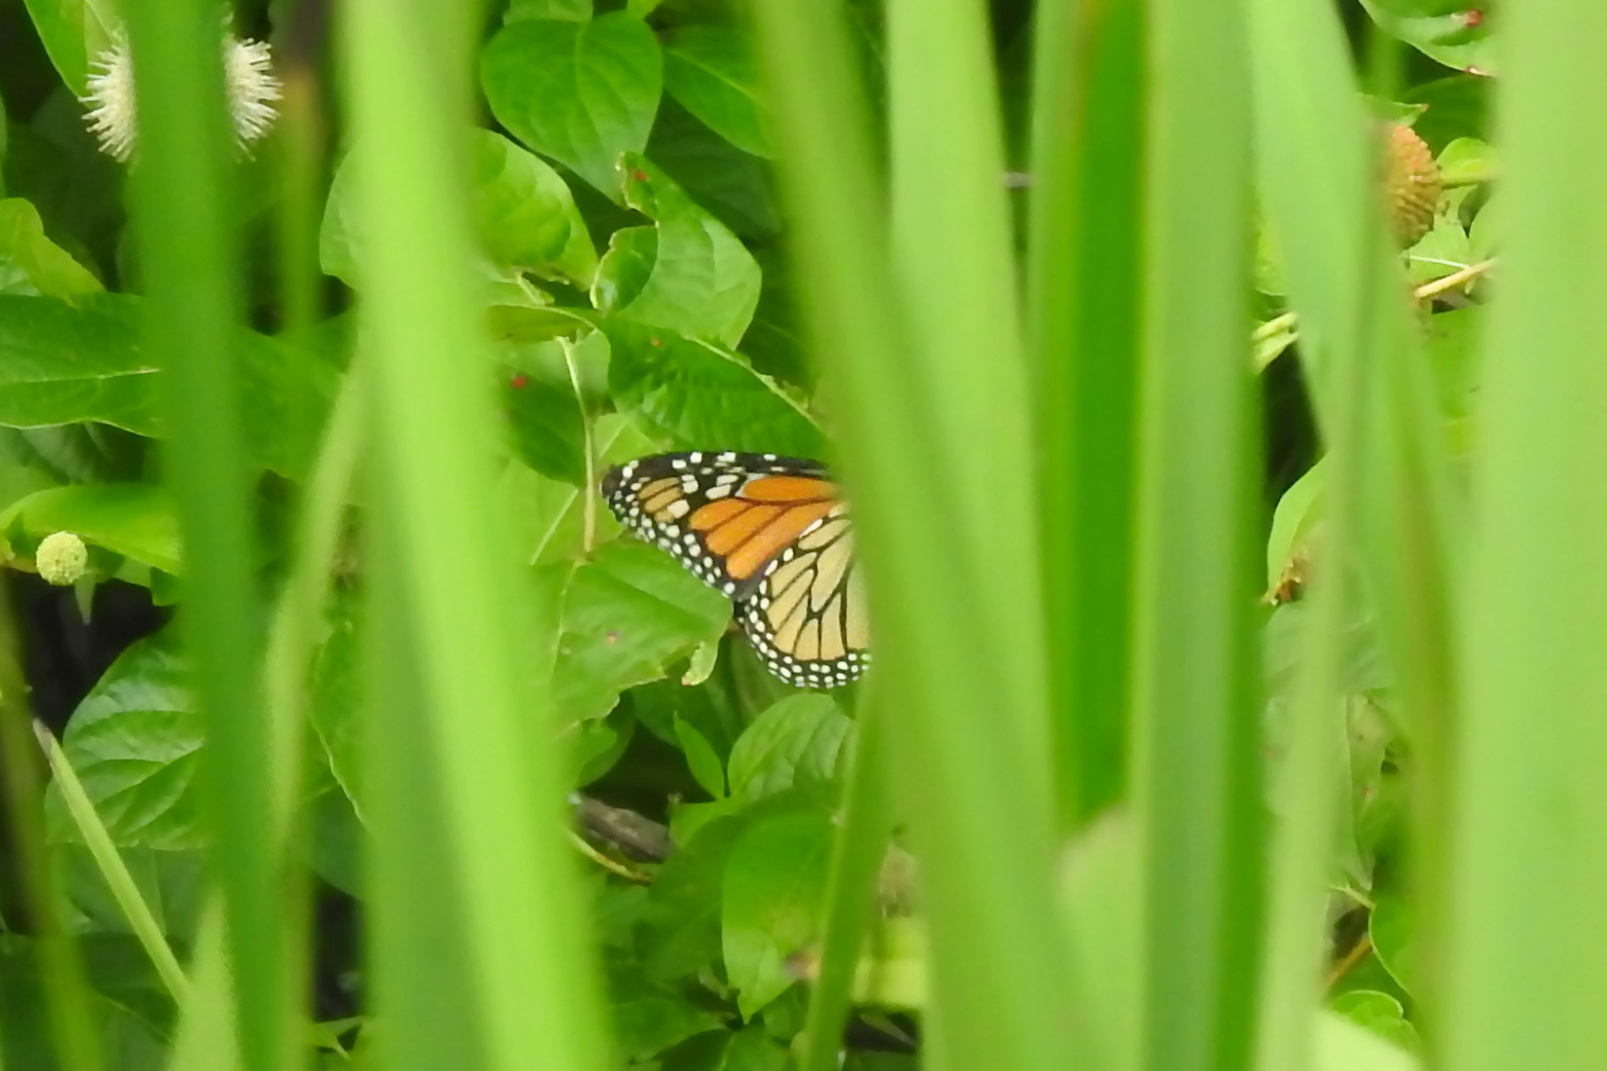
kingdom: Animalia
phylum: Arthropoda
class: Insecta
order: Lepidoptera
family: Nymphalidae
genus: Danaus
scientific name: Danaus plexippus
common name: Monarch
